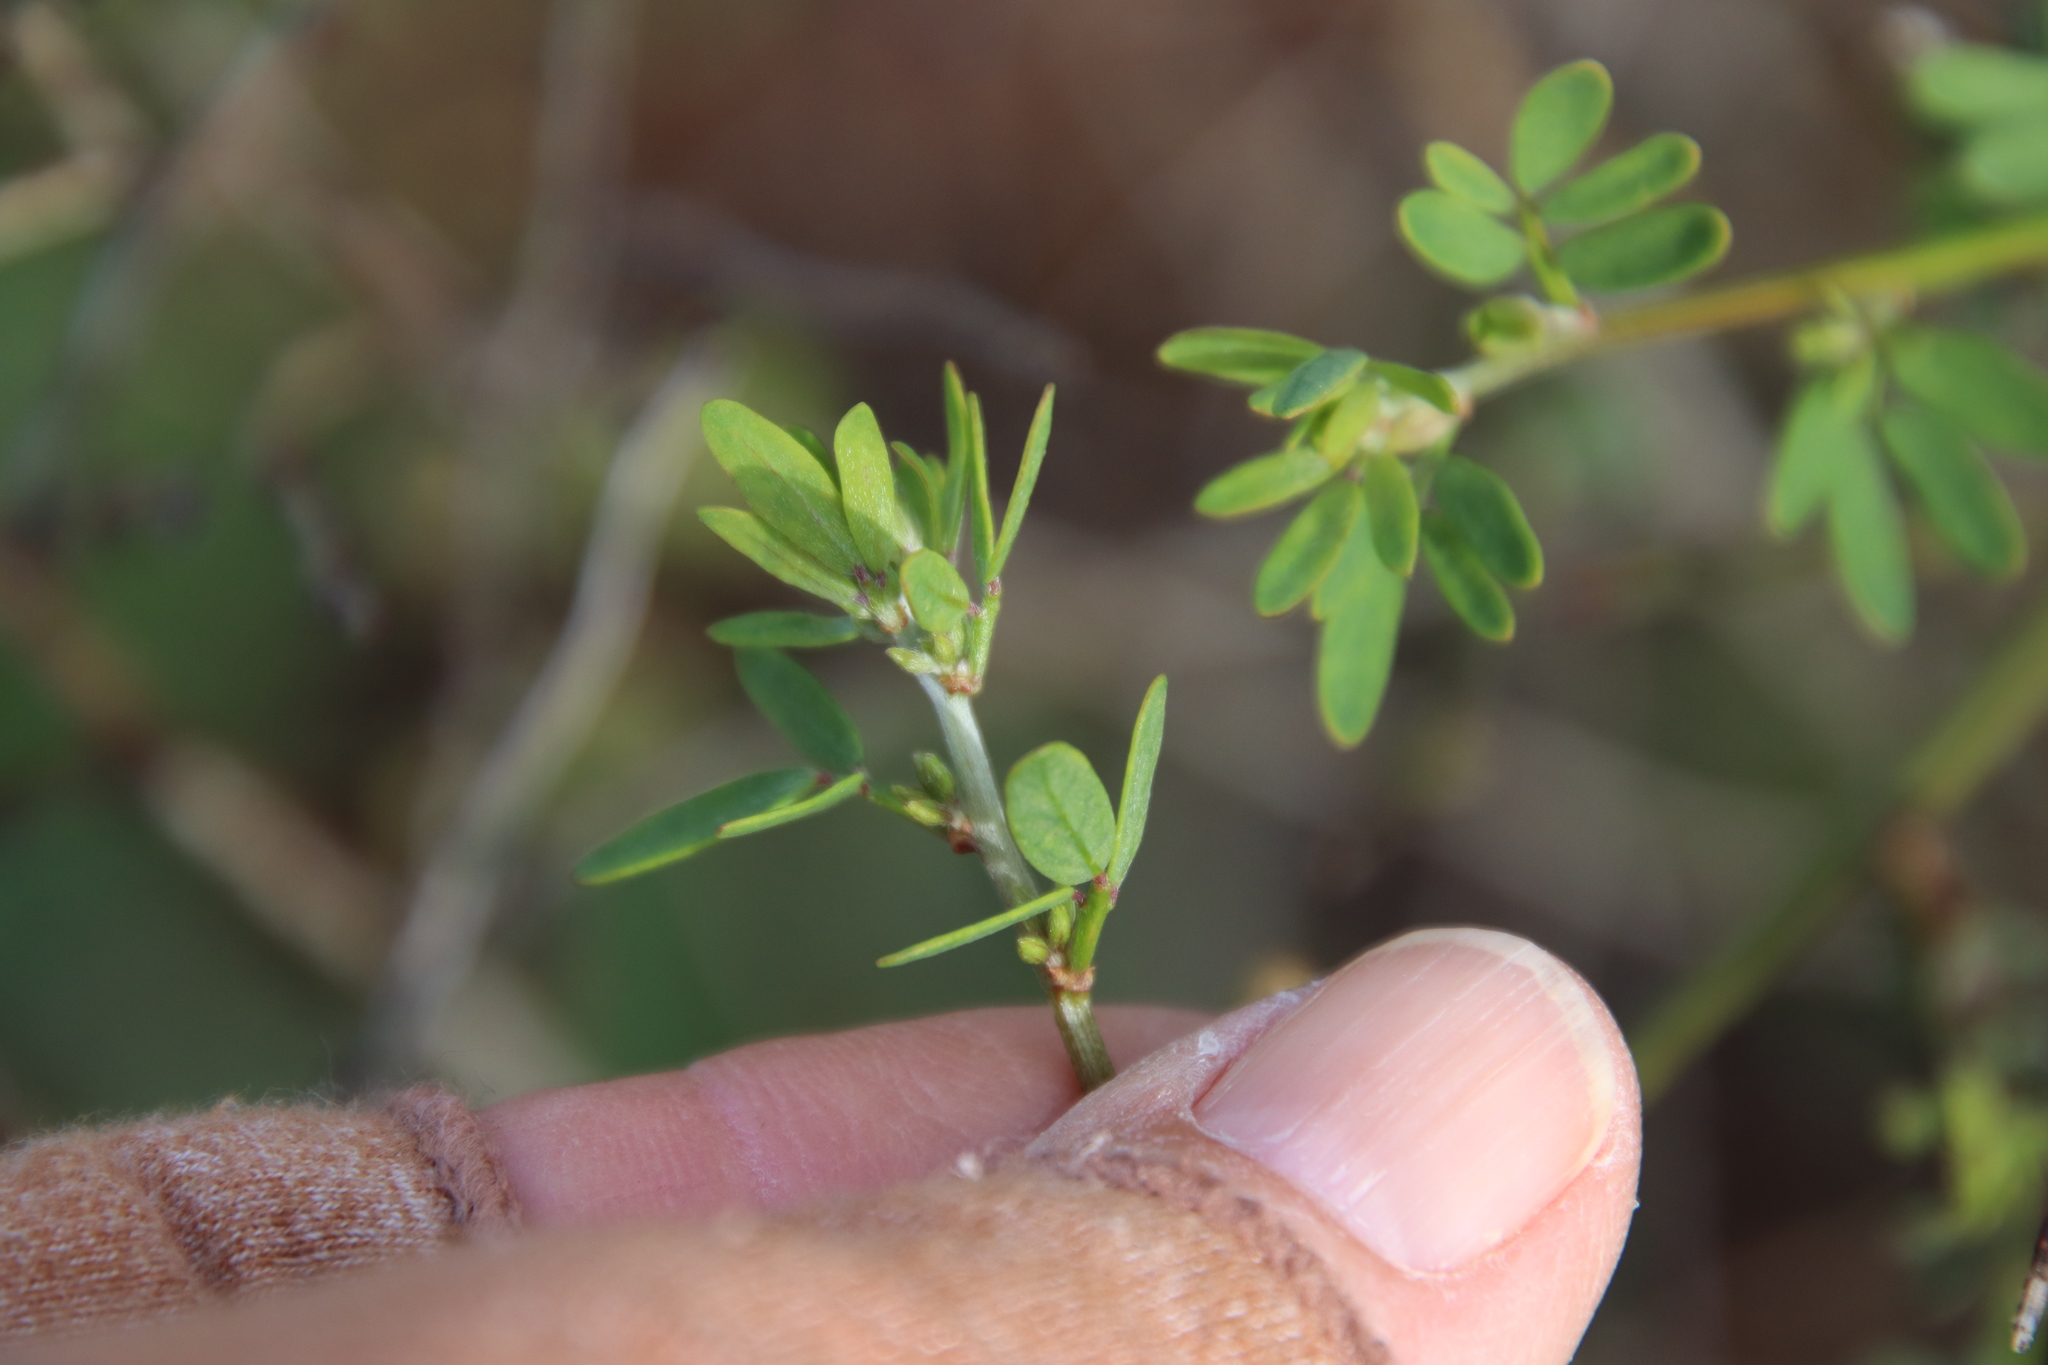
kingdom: Plantae
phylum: Tracheophyta
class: Magnoliopsida
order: Fabales
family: Fabaceae
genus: Acmispon
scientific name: Acmispon glaber
